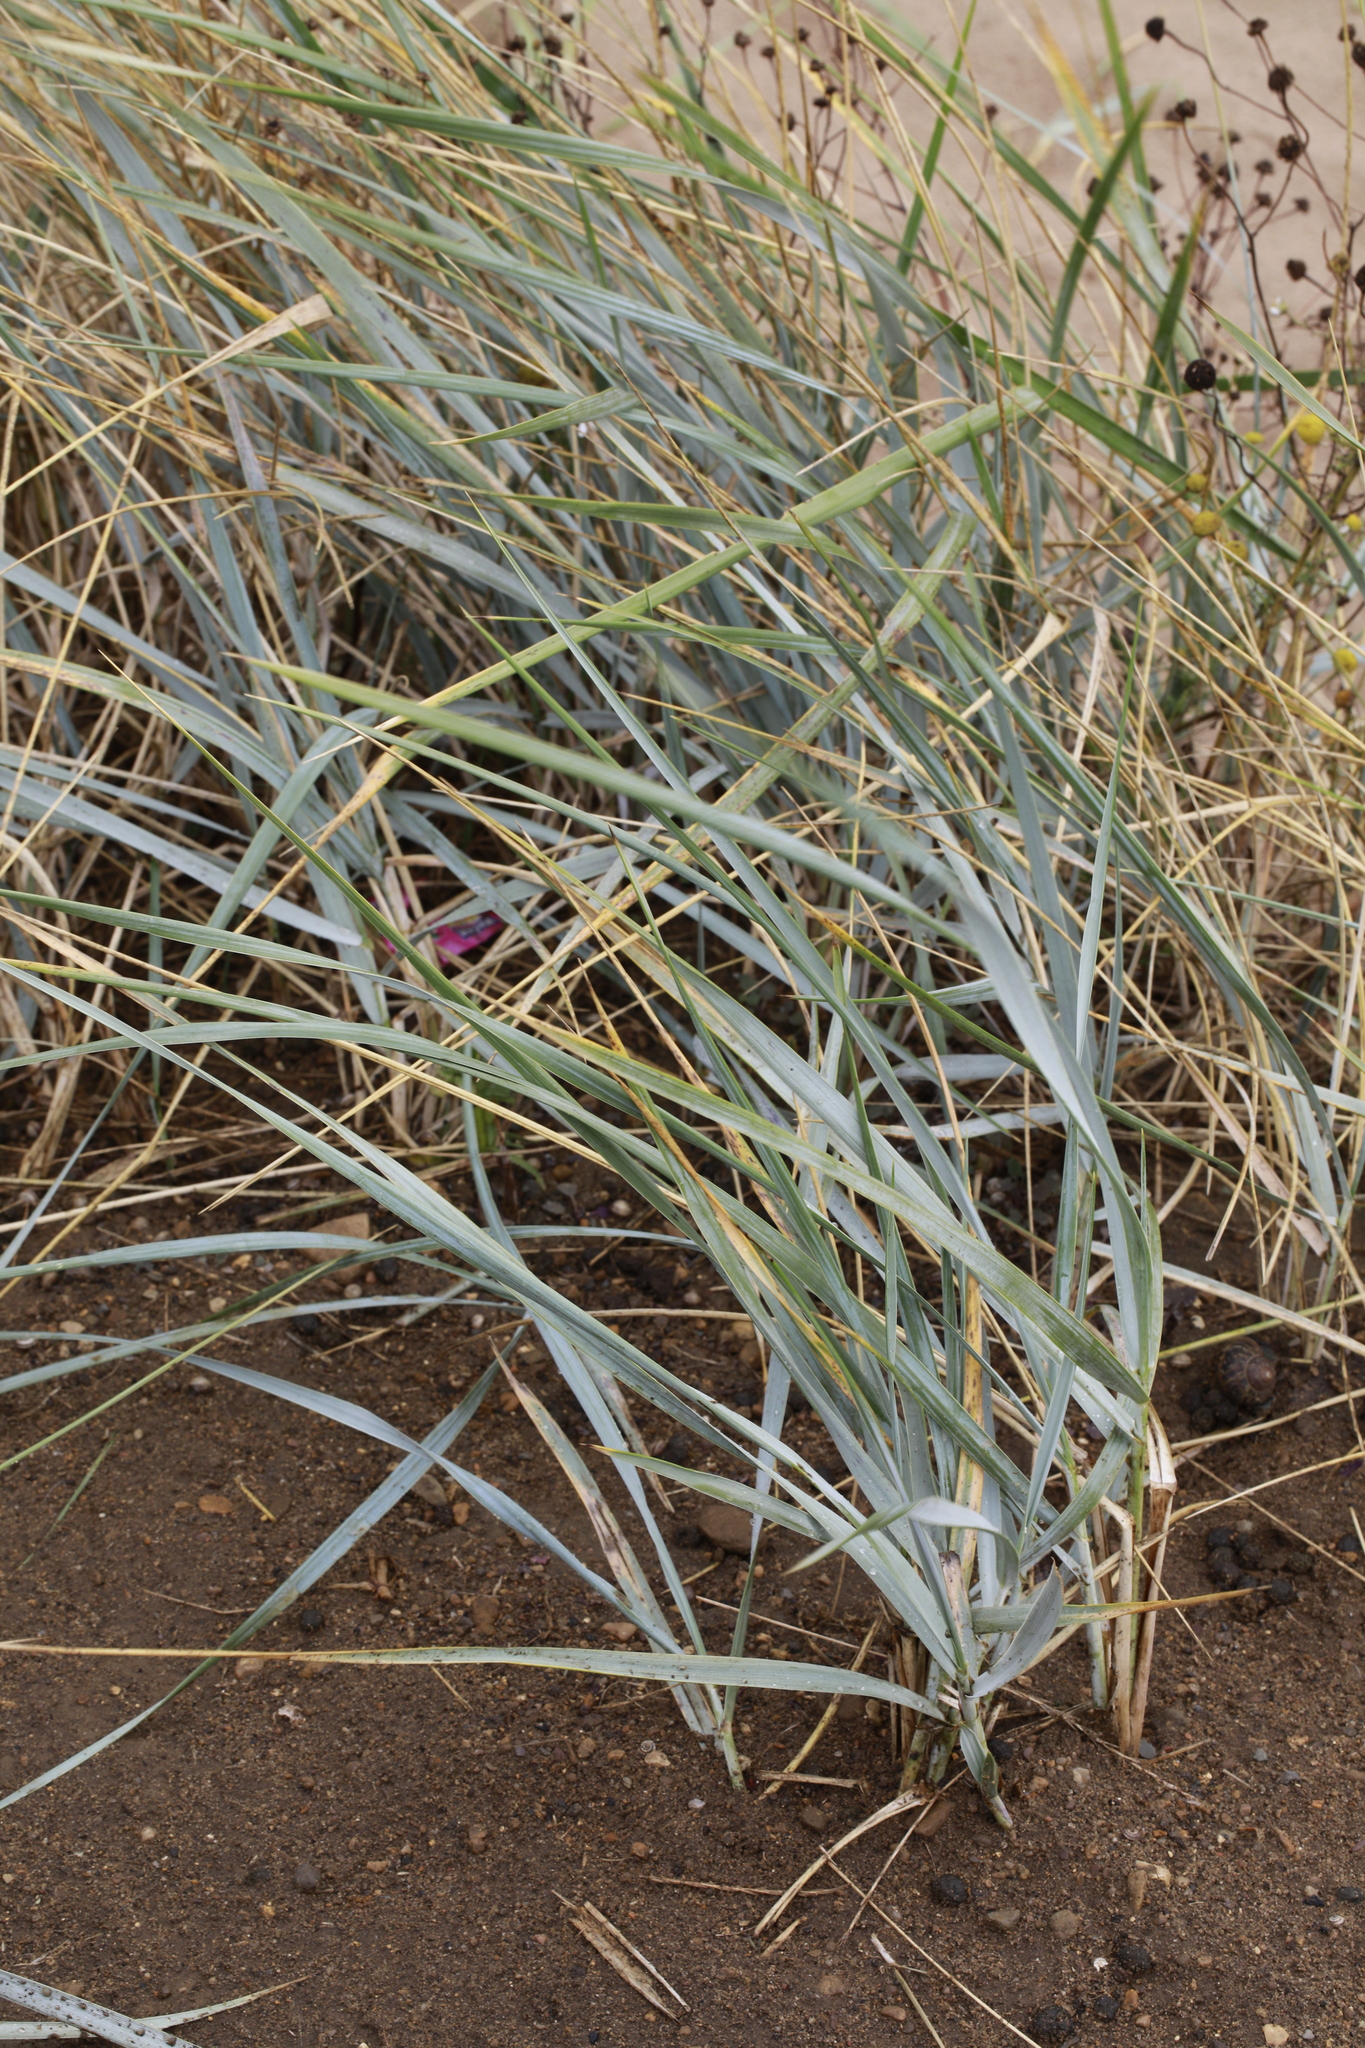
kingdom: Plantae
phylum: Tracheophyta
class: Liliopsida
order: Poales
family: Poaceae
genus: Leymus
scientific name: Leymus arenarius
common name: Lyme-grass
